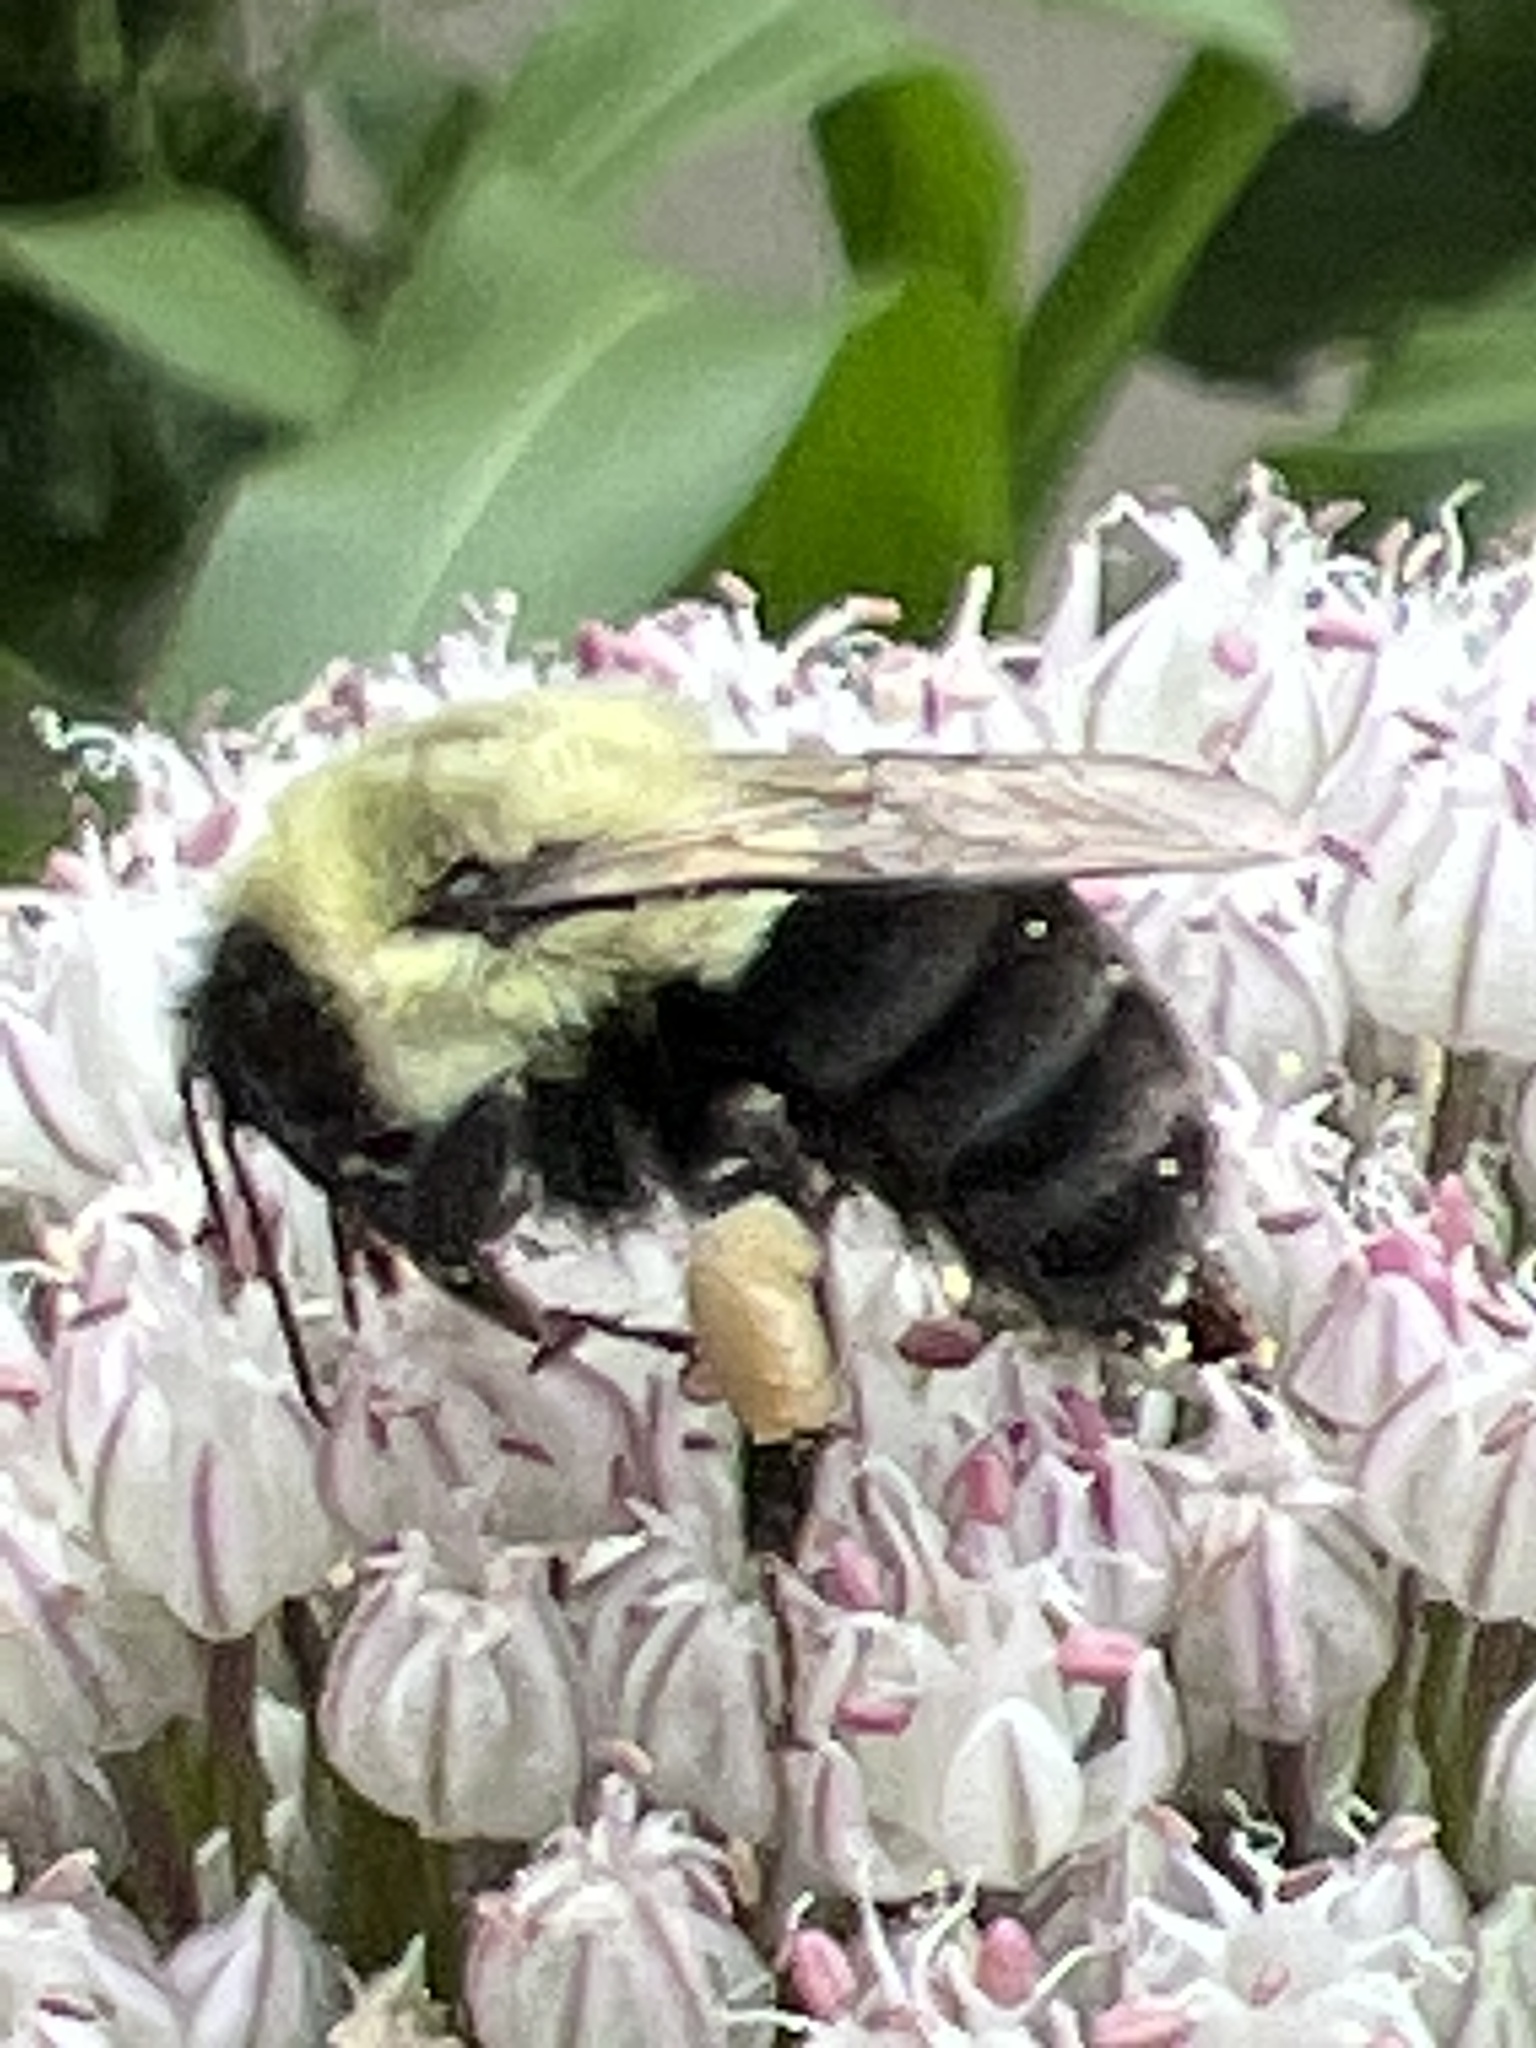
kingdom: Animalia
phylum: Arthropoda
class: Insecta
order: Hymenoptera
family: Apidae
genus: Bombus
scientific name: Bombus impatiens
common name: Common eastern bumble bee
